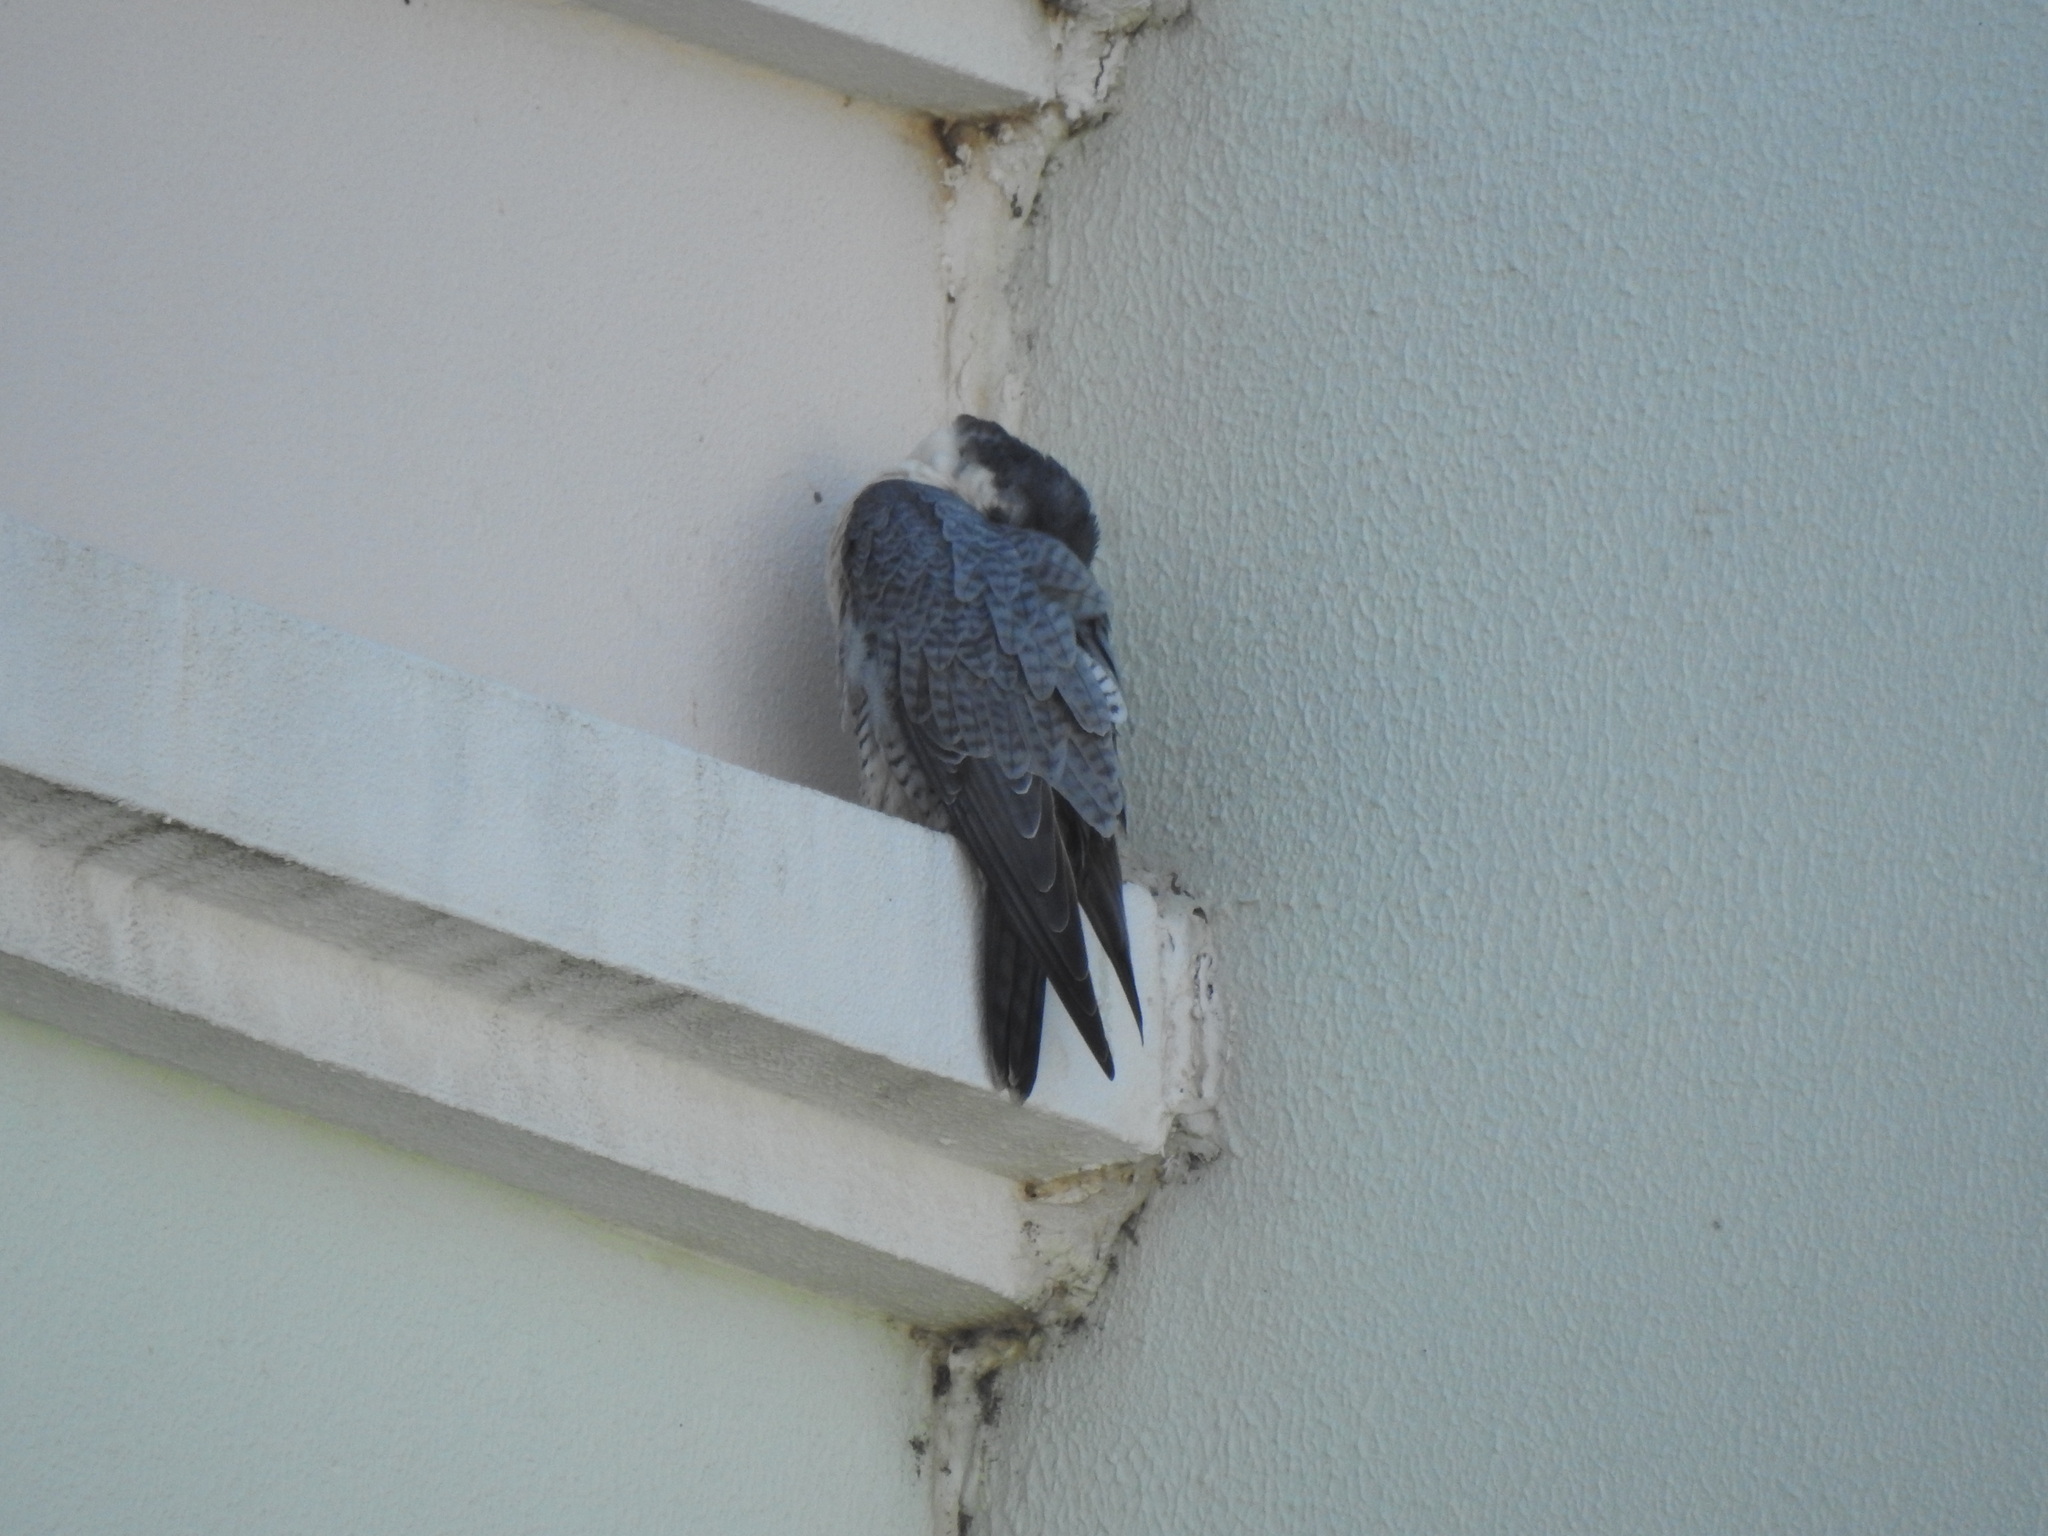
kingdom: Animalia
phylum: Chordata
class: Aves
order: Falconiformes
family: Falconidae
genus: Falco
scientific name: Falco peregrinus
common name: Peregrine falcon
